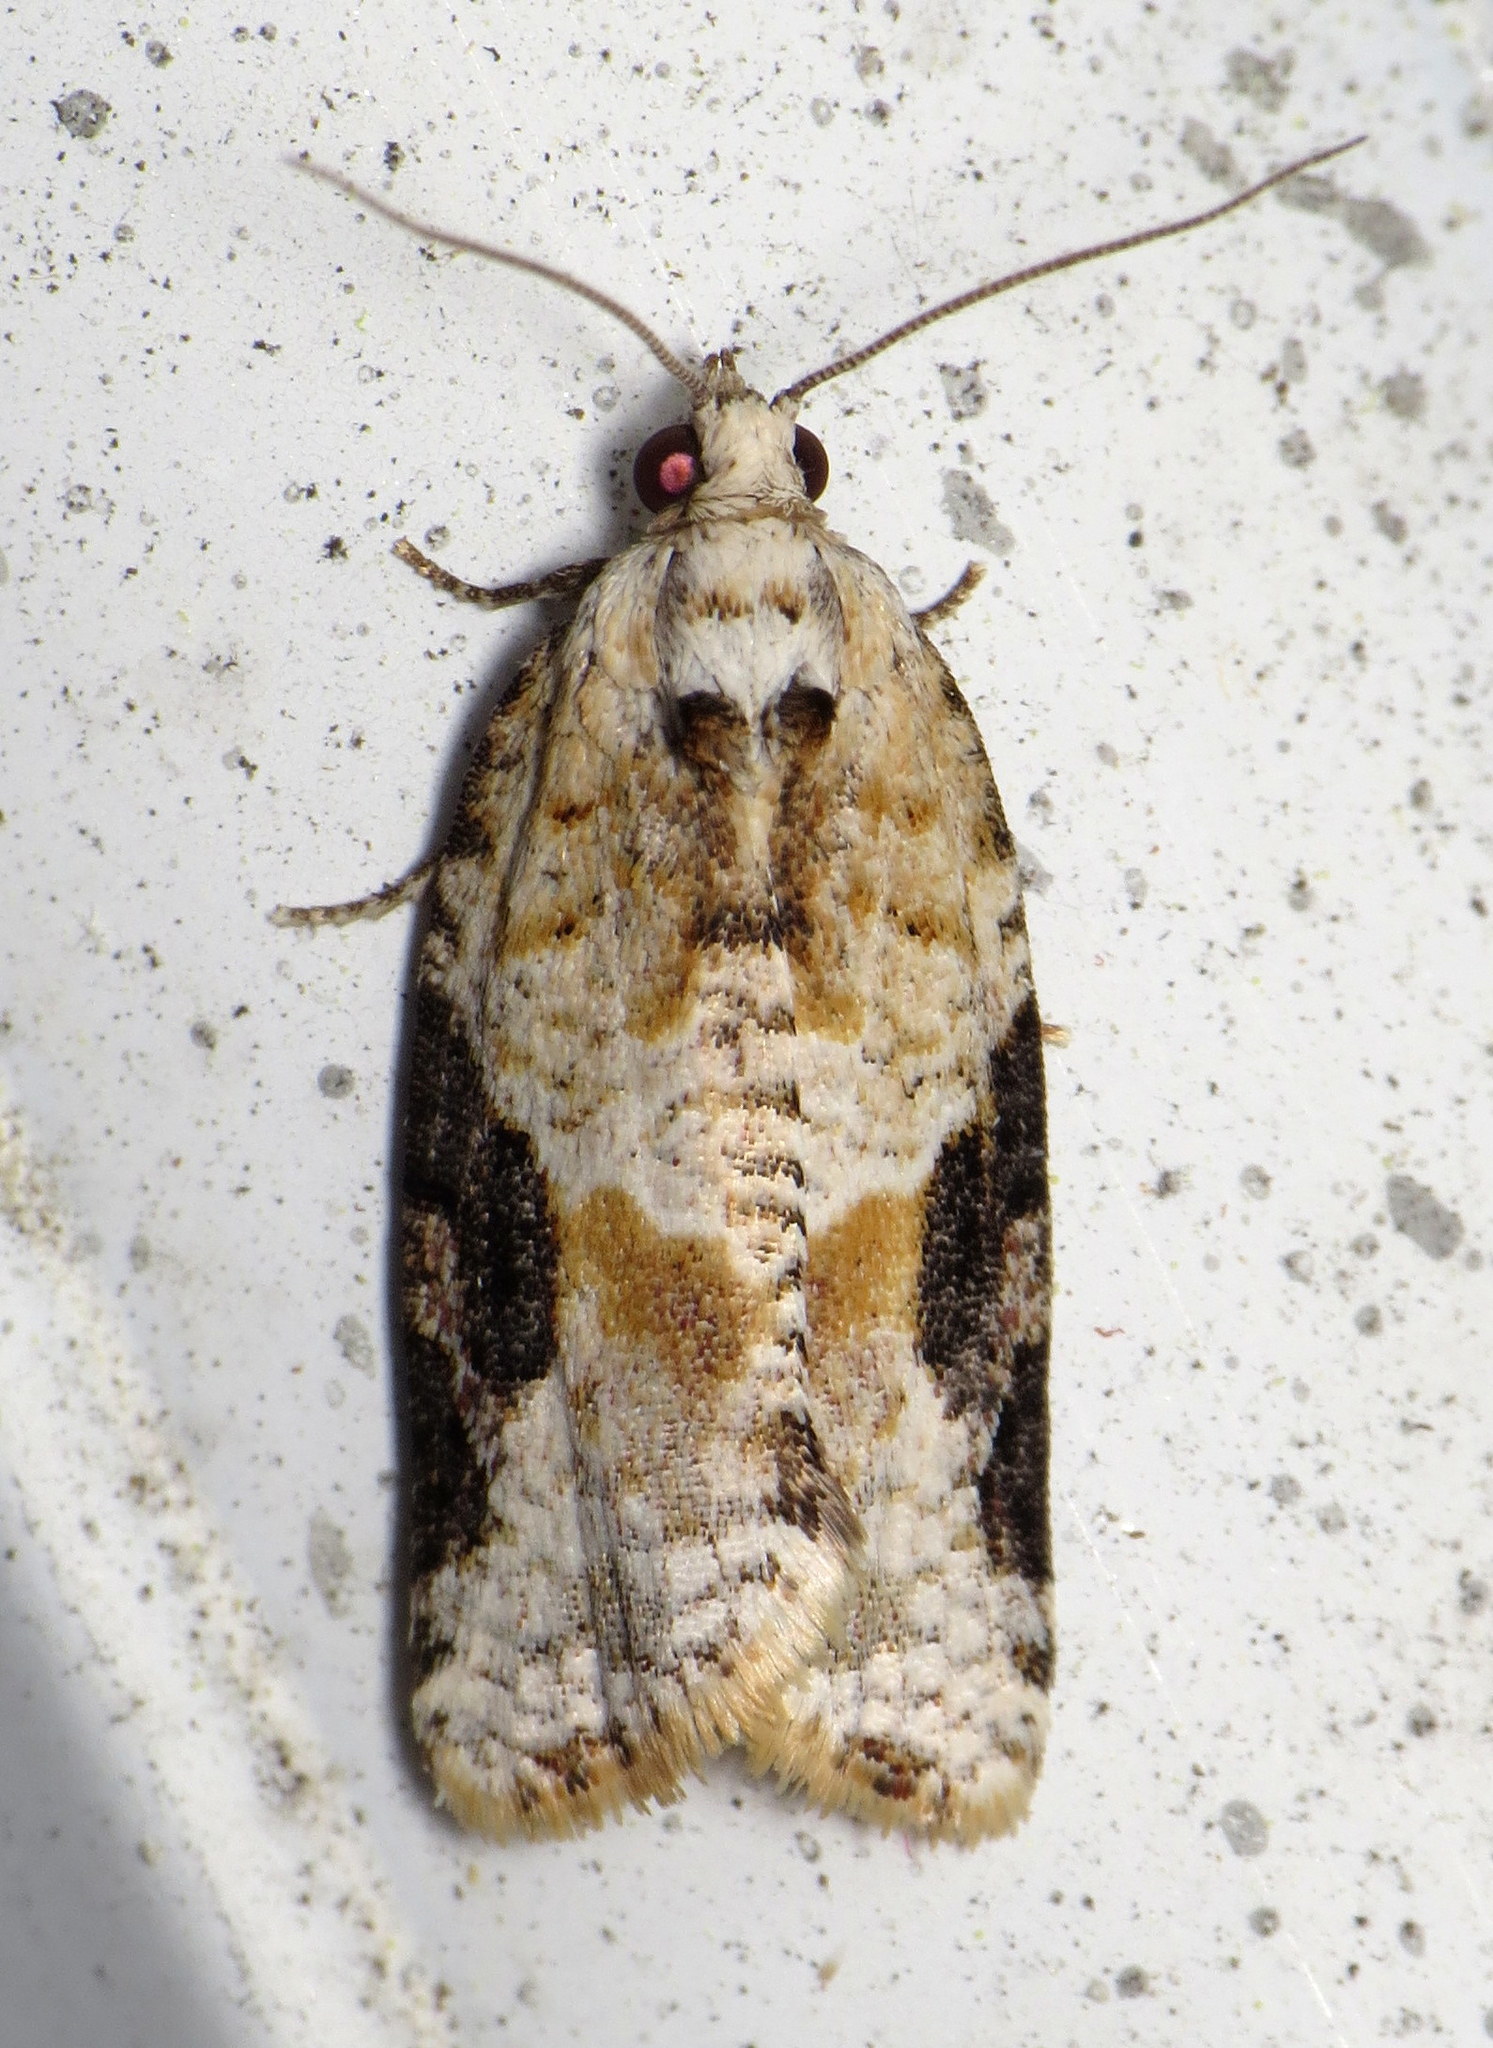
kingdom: Animalia
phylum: Arthropoda
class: Insecta
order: Lepidoptera
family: Tortricidae
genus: Argyrotaenia
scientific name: Argyrotaenia mariana
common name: Gray-banded leafroller moth
